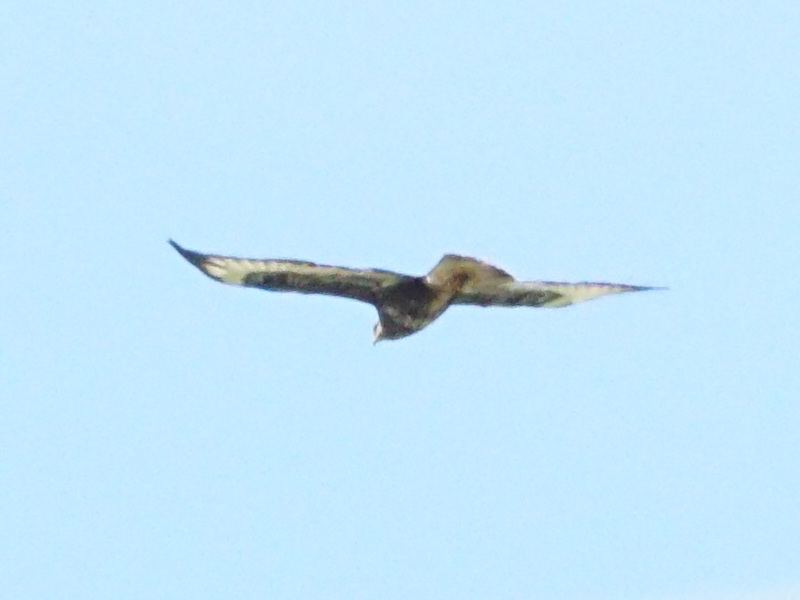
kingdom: Animalia
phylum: Chordata
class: Aves
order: Accipitriformes
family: Accipitridae
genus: Buteo
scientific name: Buteo buteo
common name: Common buzzard
